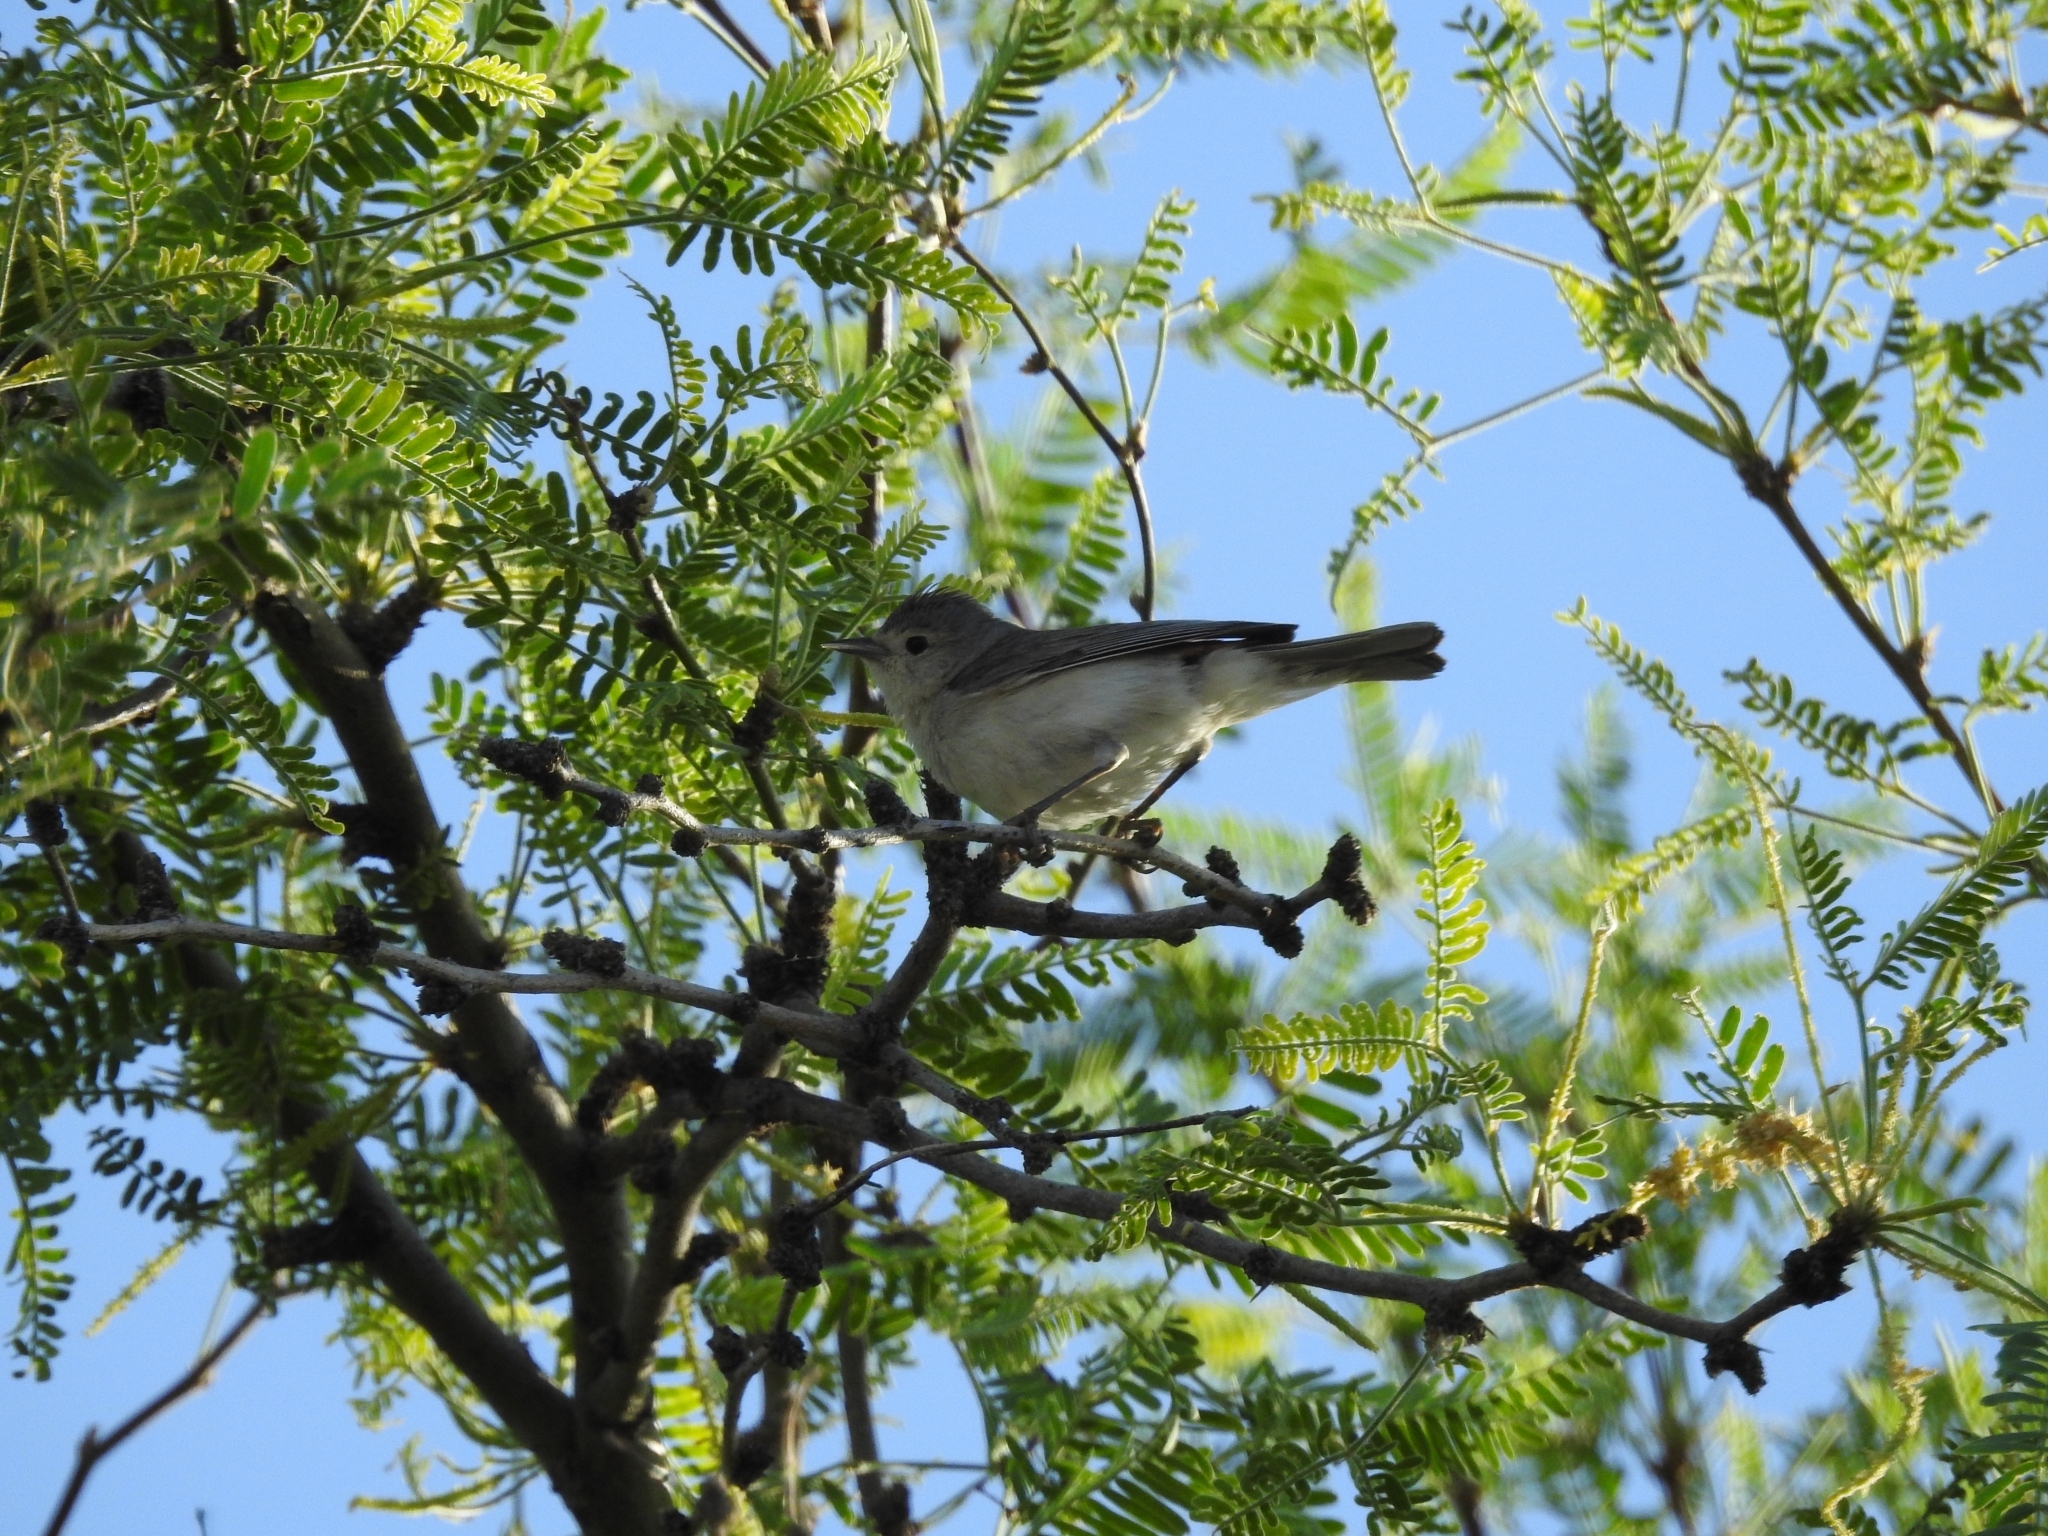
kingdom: Animalia
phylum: Chordata
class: Aves
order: Passeriformes
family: Parulidae
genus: Leiothlypis
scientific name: Leiothlypis luciae
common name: Lucy's warbler
